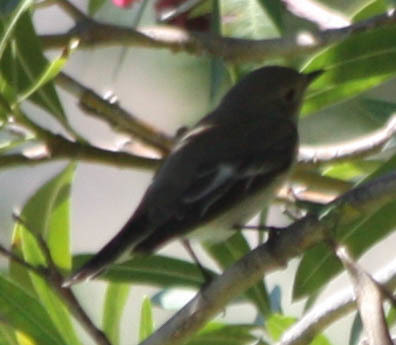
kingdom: Animalia
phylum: Chordata
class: Aves
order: Passeriformes
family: Muscicapidae
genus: Ficedula
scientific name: Ficedula hypoleuca
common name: European pied flycatcher
